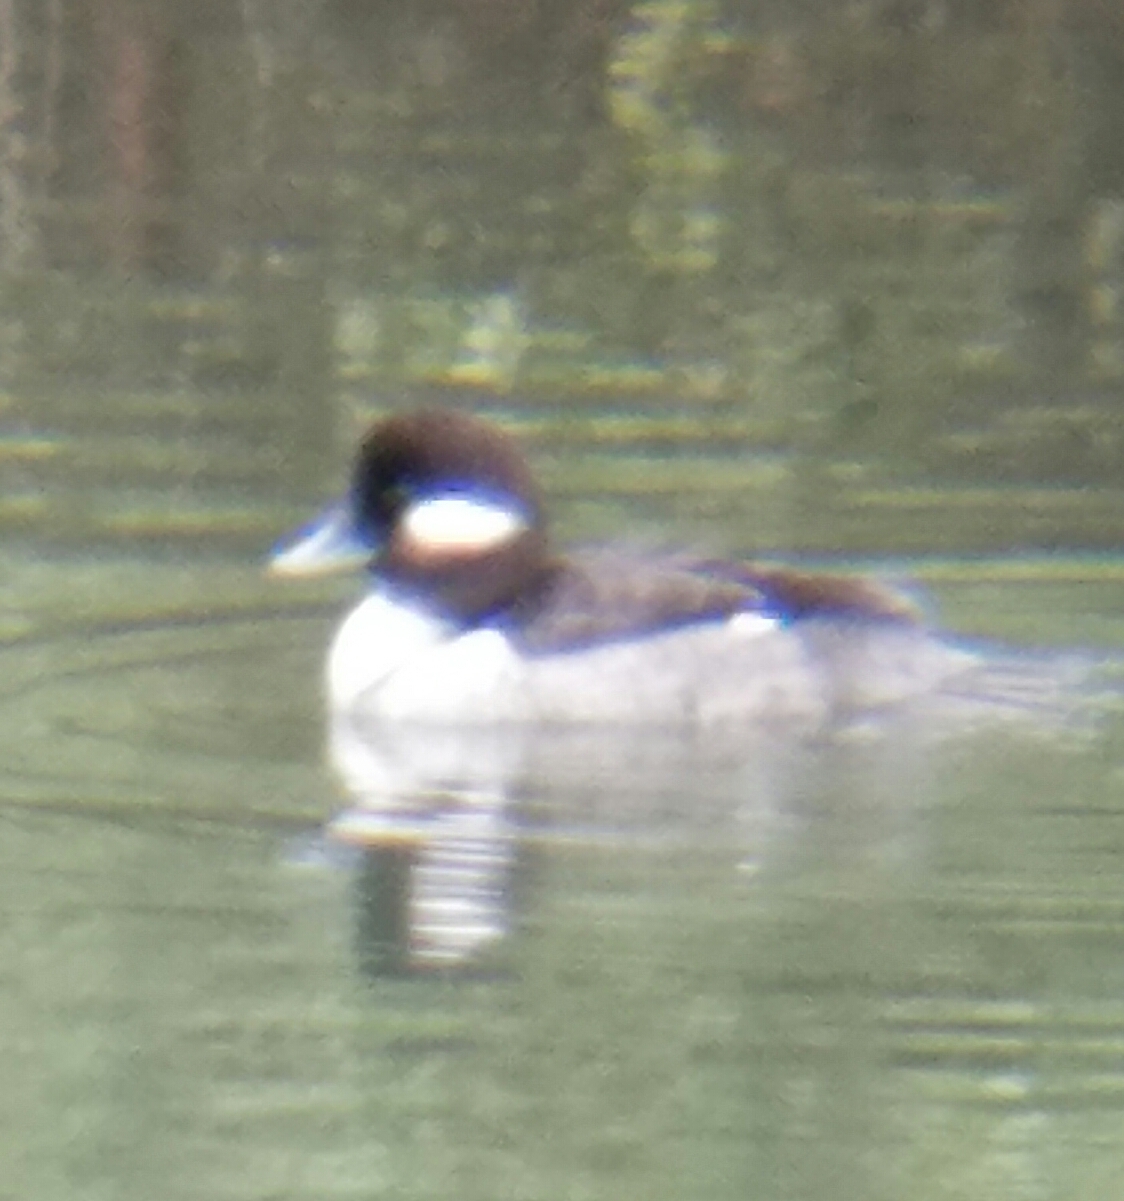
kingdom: Animalia
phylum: Chordata
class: Aves
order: Anseriformes
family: Anatidae
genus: Bucephala
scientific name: Bucephala albeola
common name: Bufflehead
